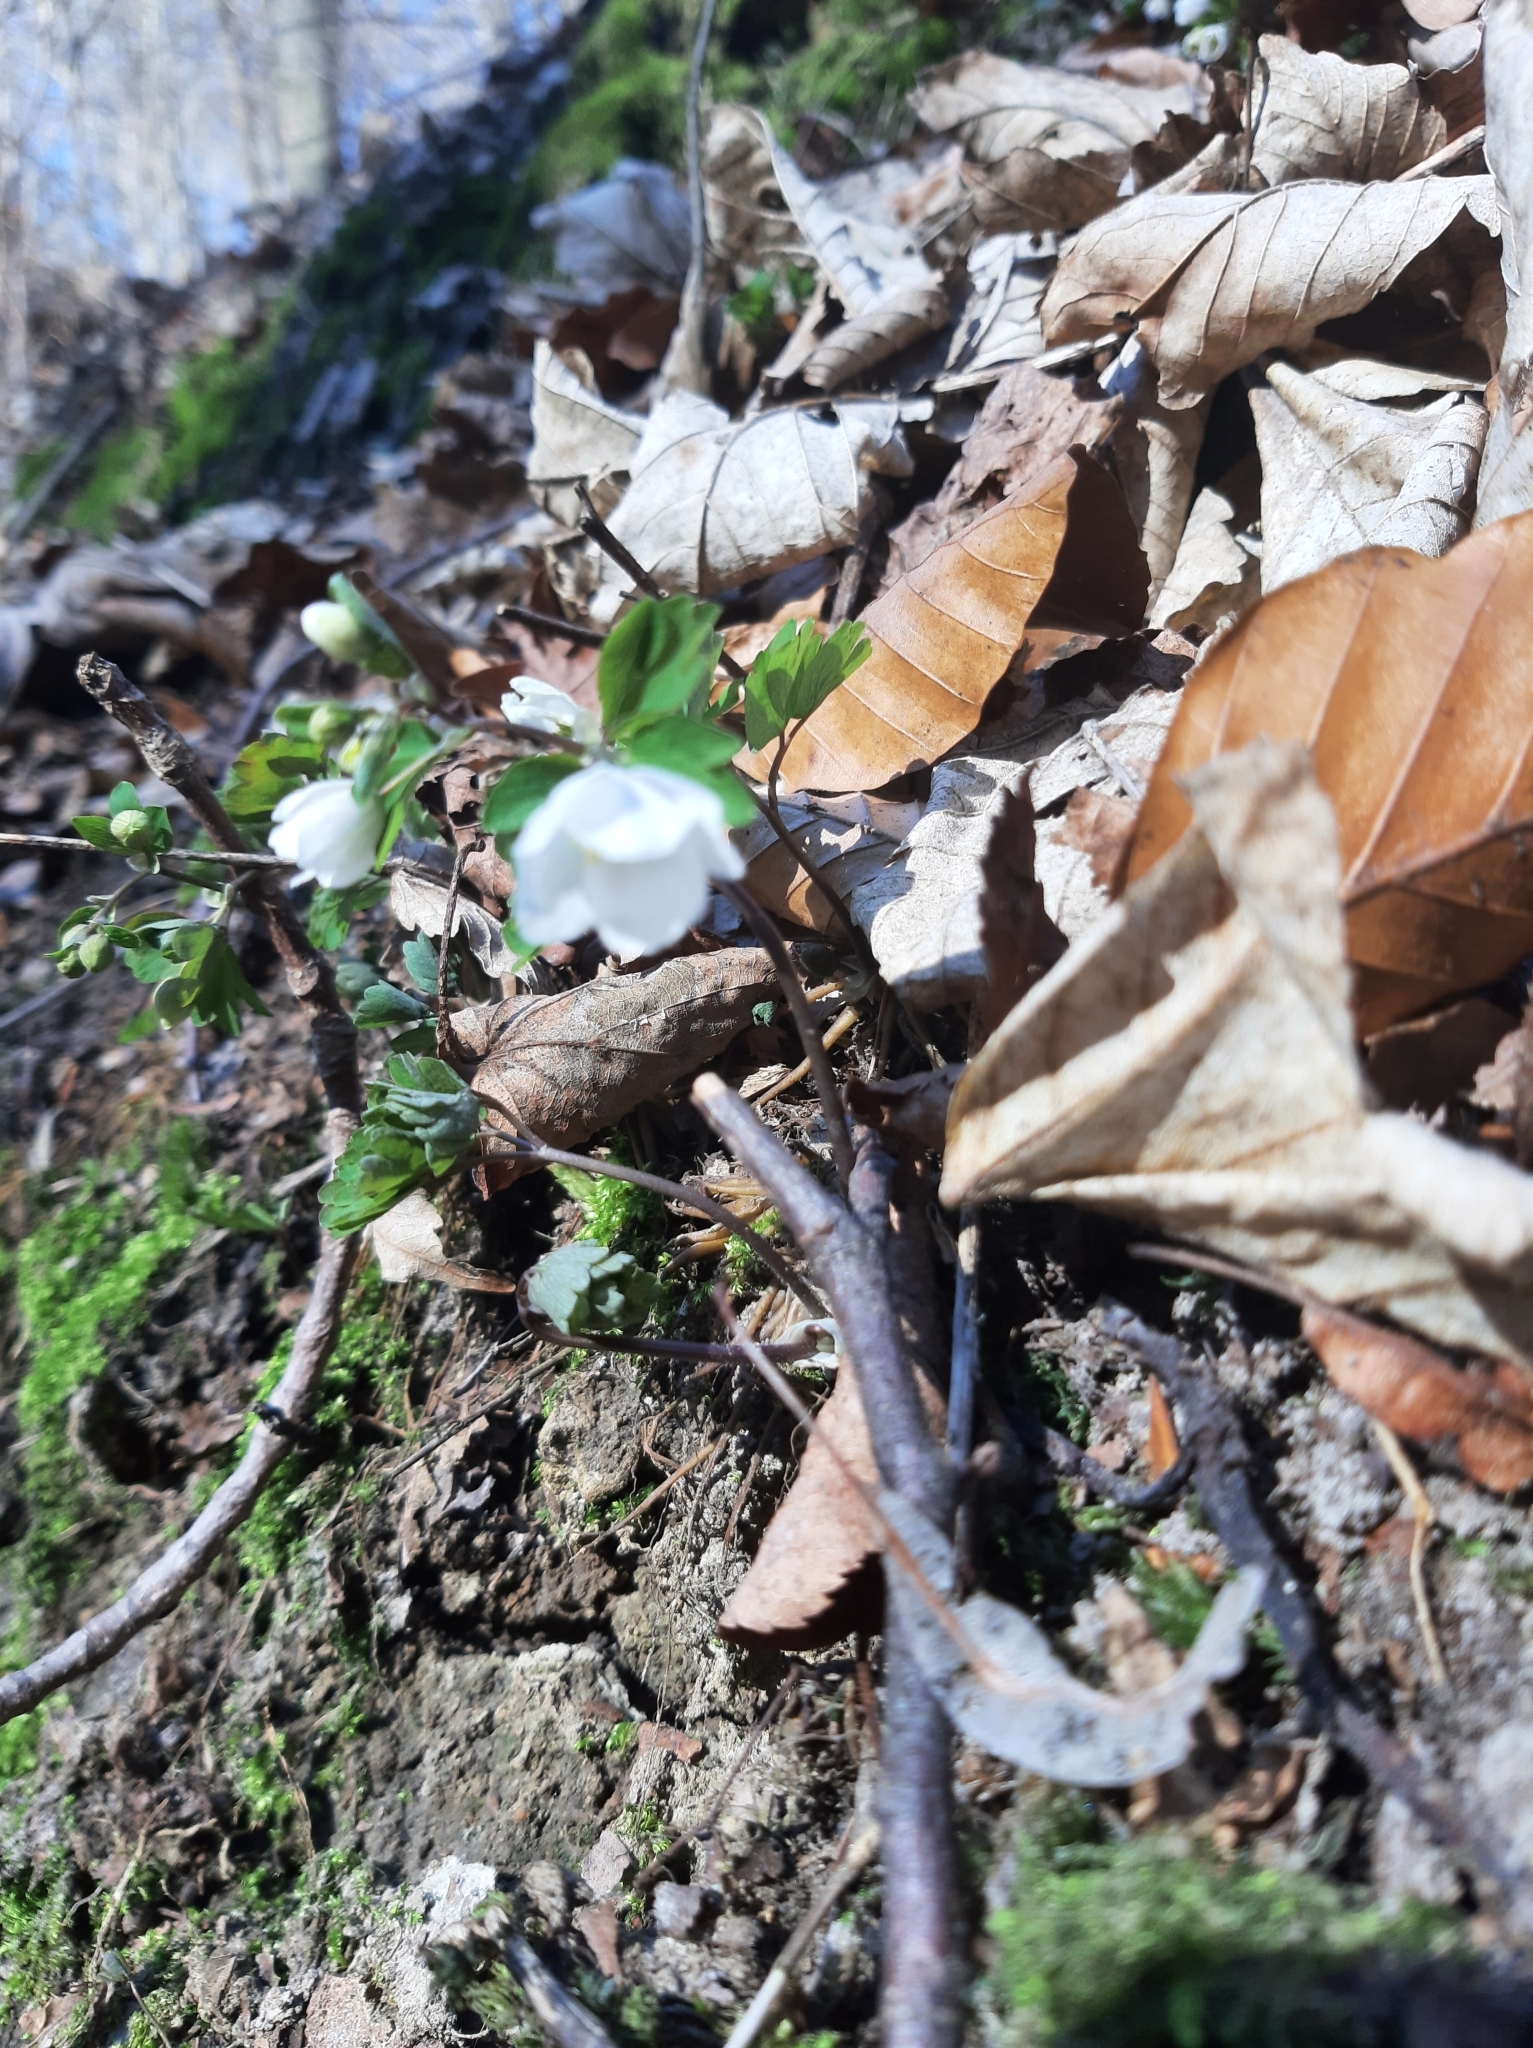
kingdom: Plantae
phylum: Tracheophyta
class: Magnoliopsida
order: Ranunculales
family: Ranunculaceae
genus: Isopyrum
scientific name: Isopyrum thalictroides
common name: Isopyrum
